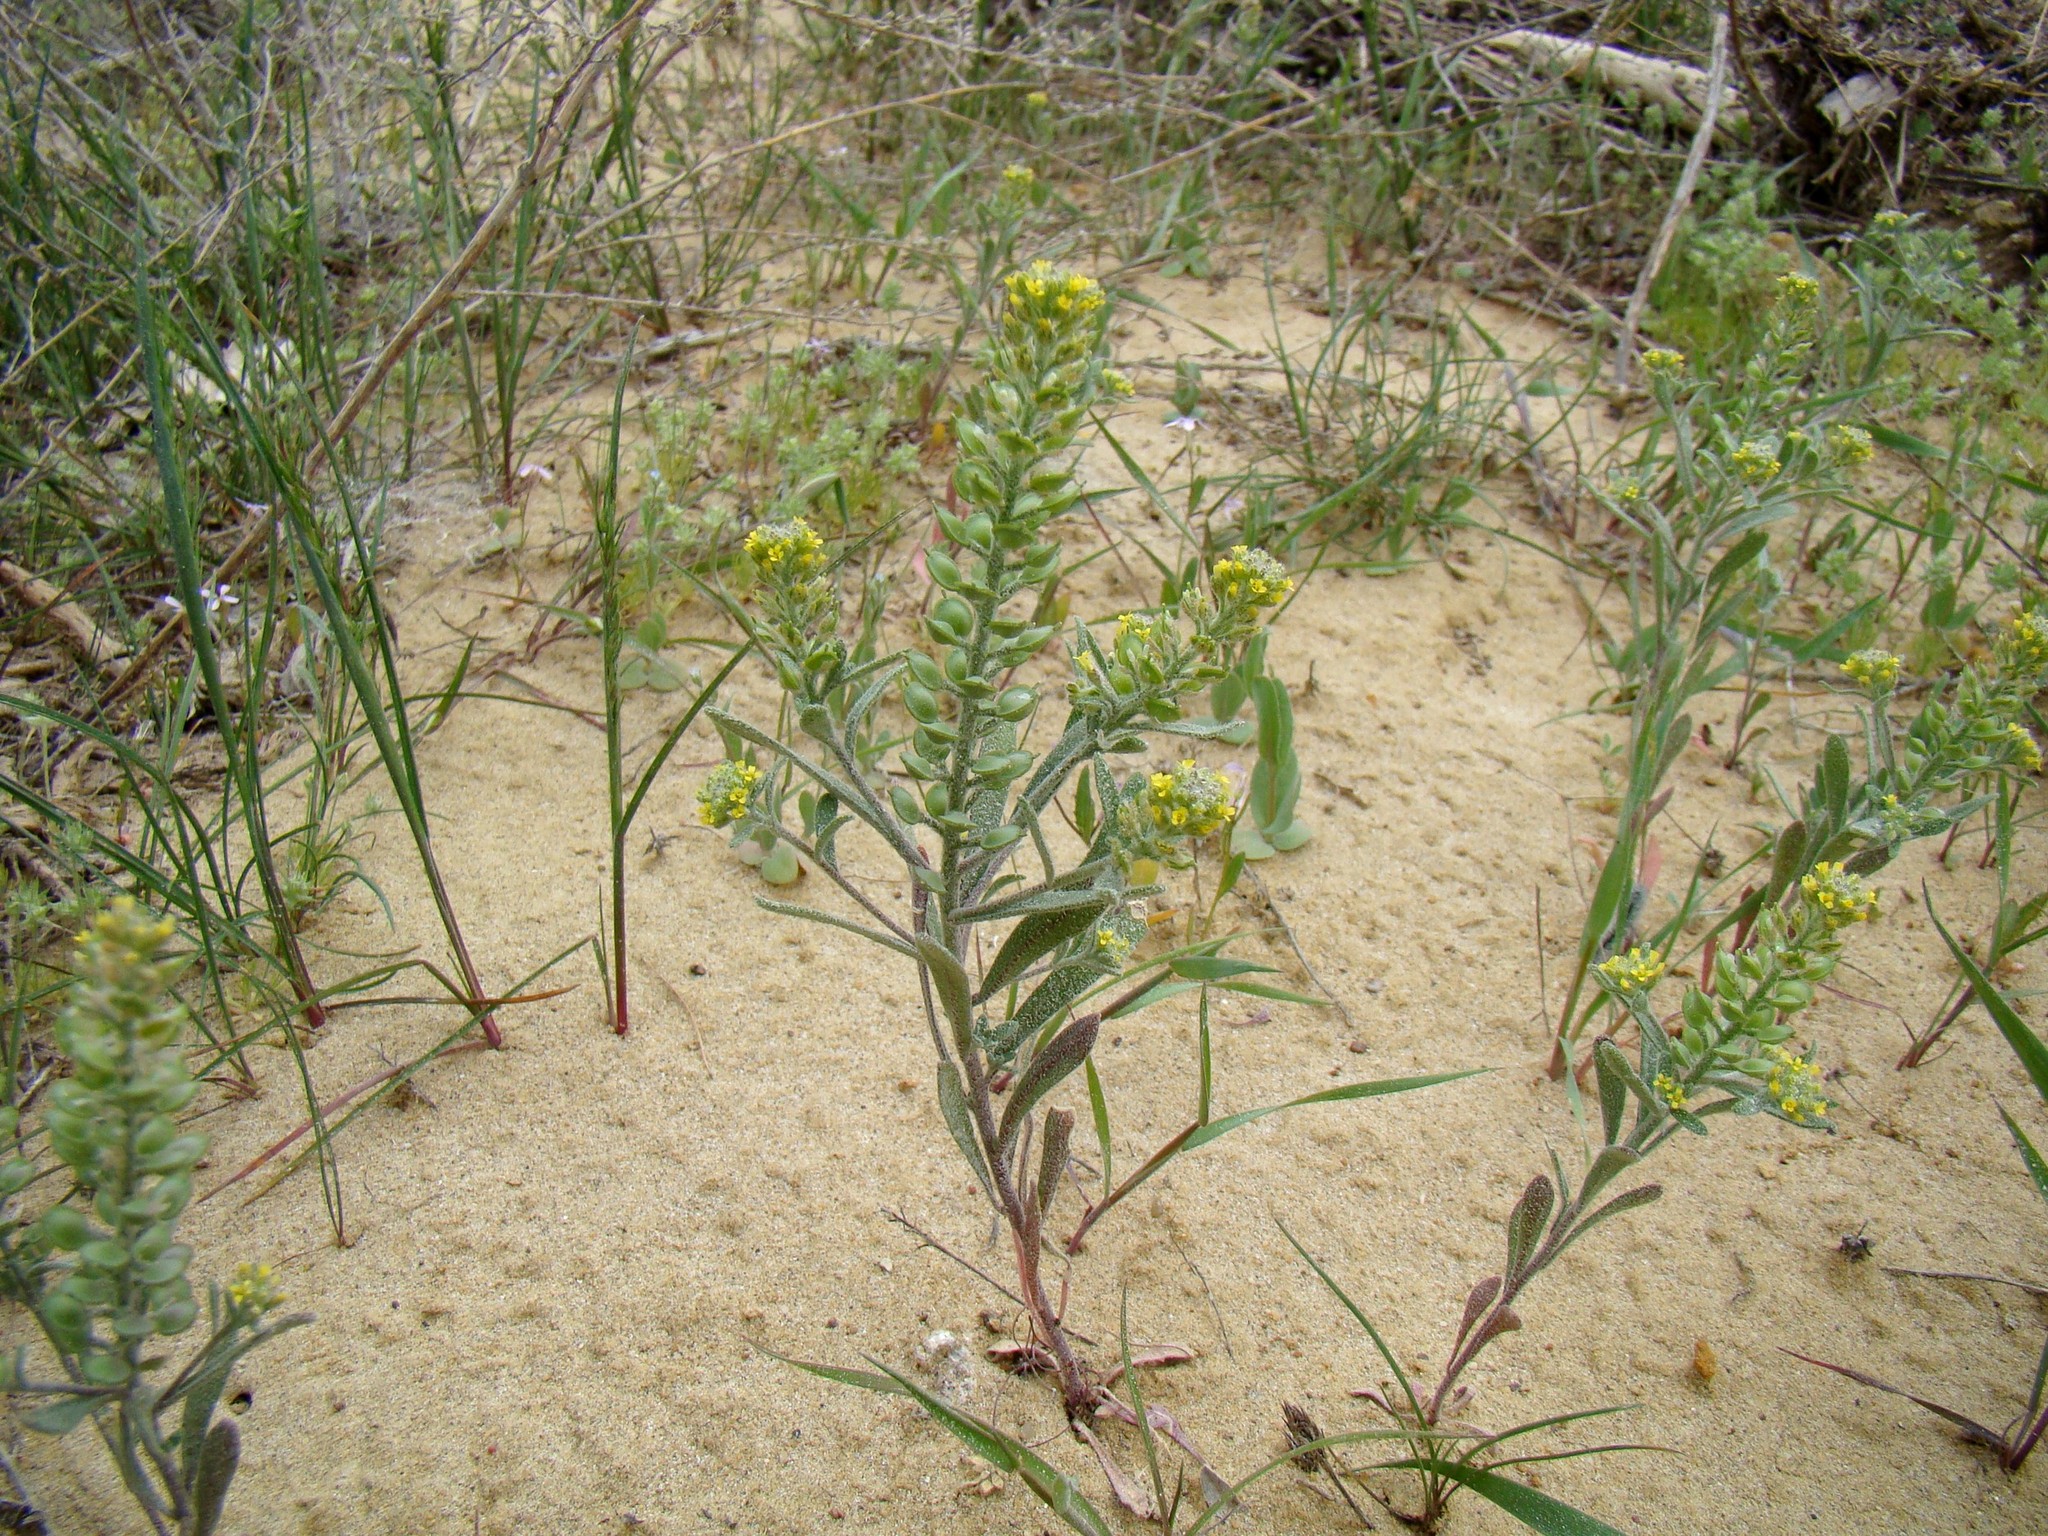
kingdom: Plantae
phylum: Tracheophyta
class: Magnoliopsida
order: Brassicales
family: Brassicaceae
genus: Alyssum
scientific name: Alyssum turkestanicum
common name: Desert alyssum
